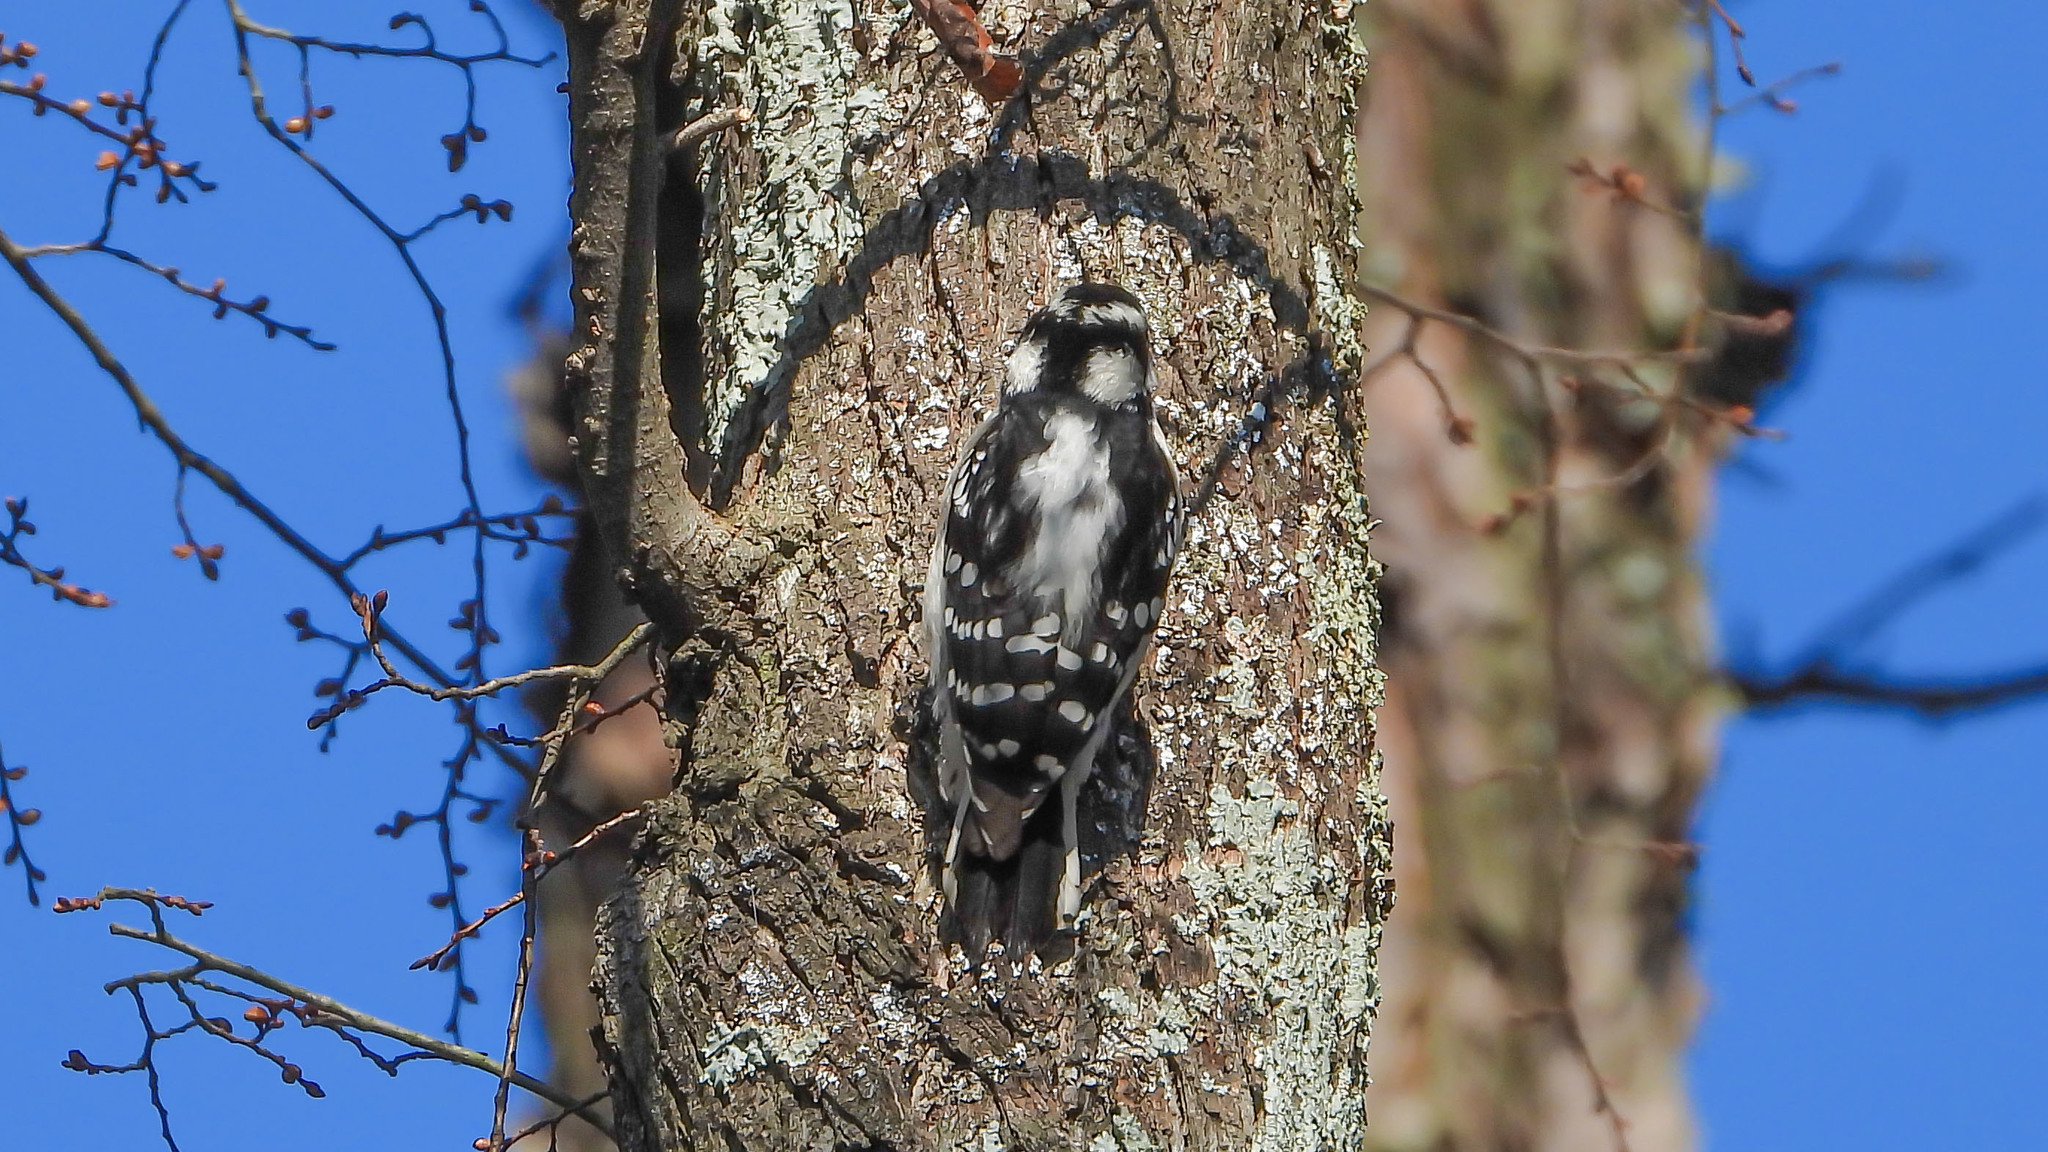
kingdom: Animalia
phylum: Chordata
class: Aves
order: Piciformes
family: Picidae
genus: Dryobates
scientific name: Dryobates pubescens
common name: Downy woodpecker
